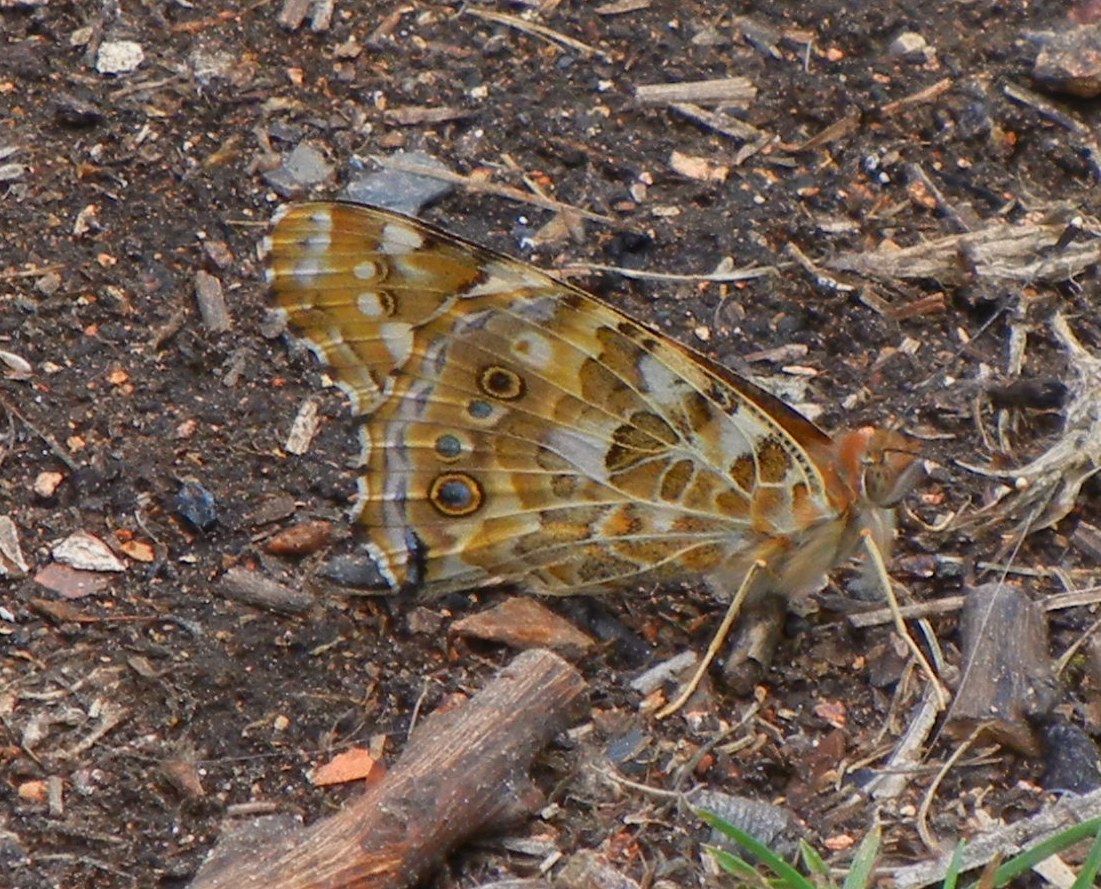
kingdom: Animalia
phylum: Arthropoda
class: Insecta
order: Lepidoptera
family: Nymphalidae
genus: Vanessa
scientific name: Vanessa cardui
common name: Painted lady
